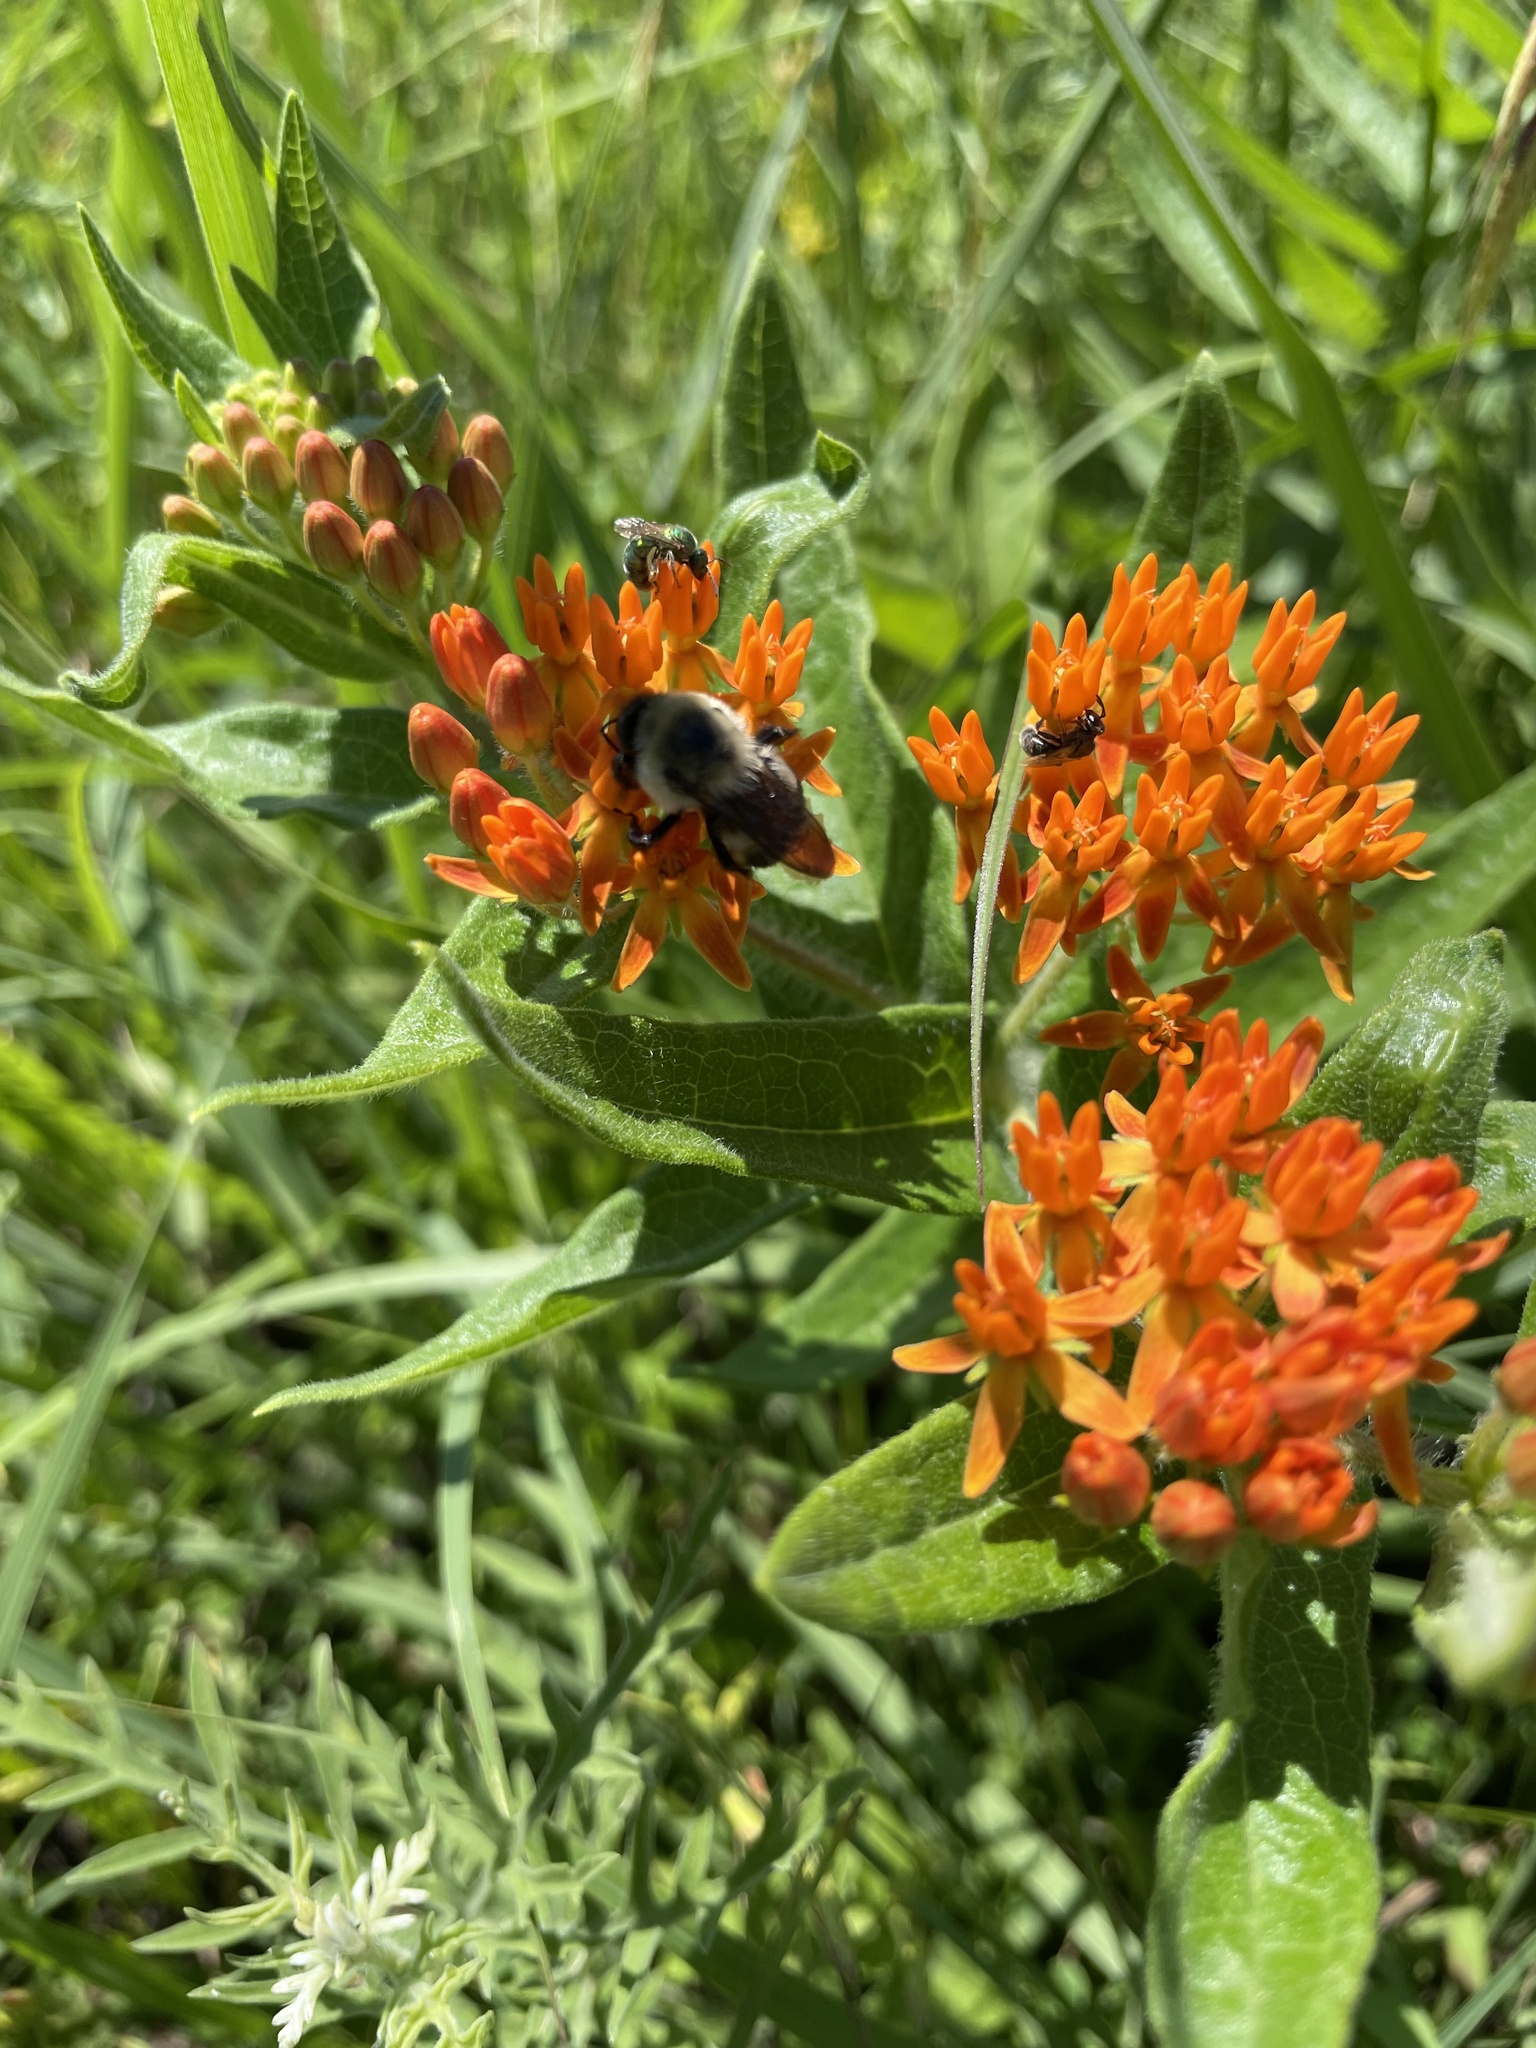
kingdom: Animalia
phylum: Arthropoda
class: Insecta
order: Hymenoptera
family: Apidae
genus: Bombus
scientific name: Bombus griseocollis
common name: Brown-belted bumble bee
